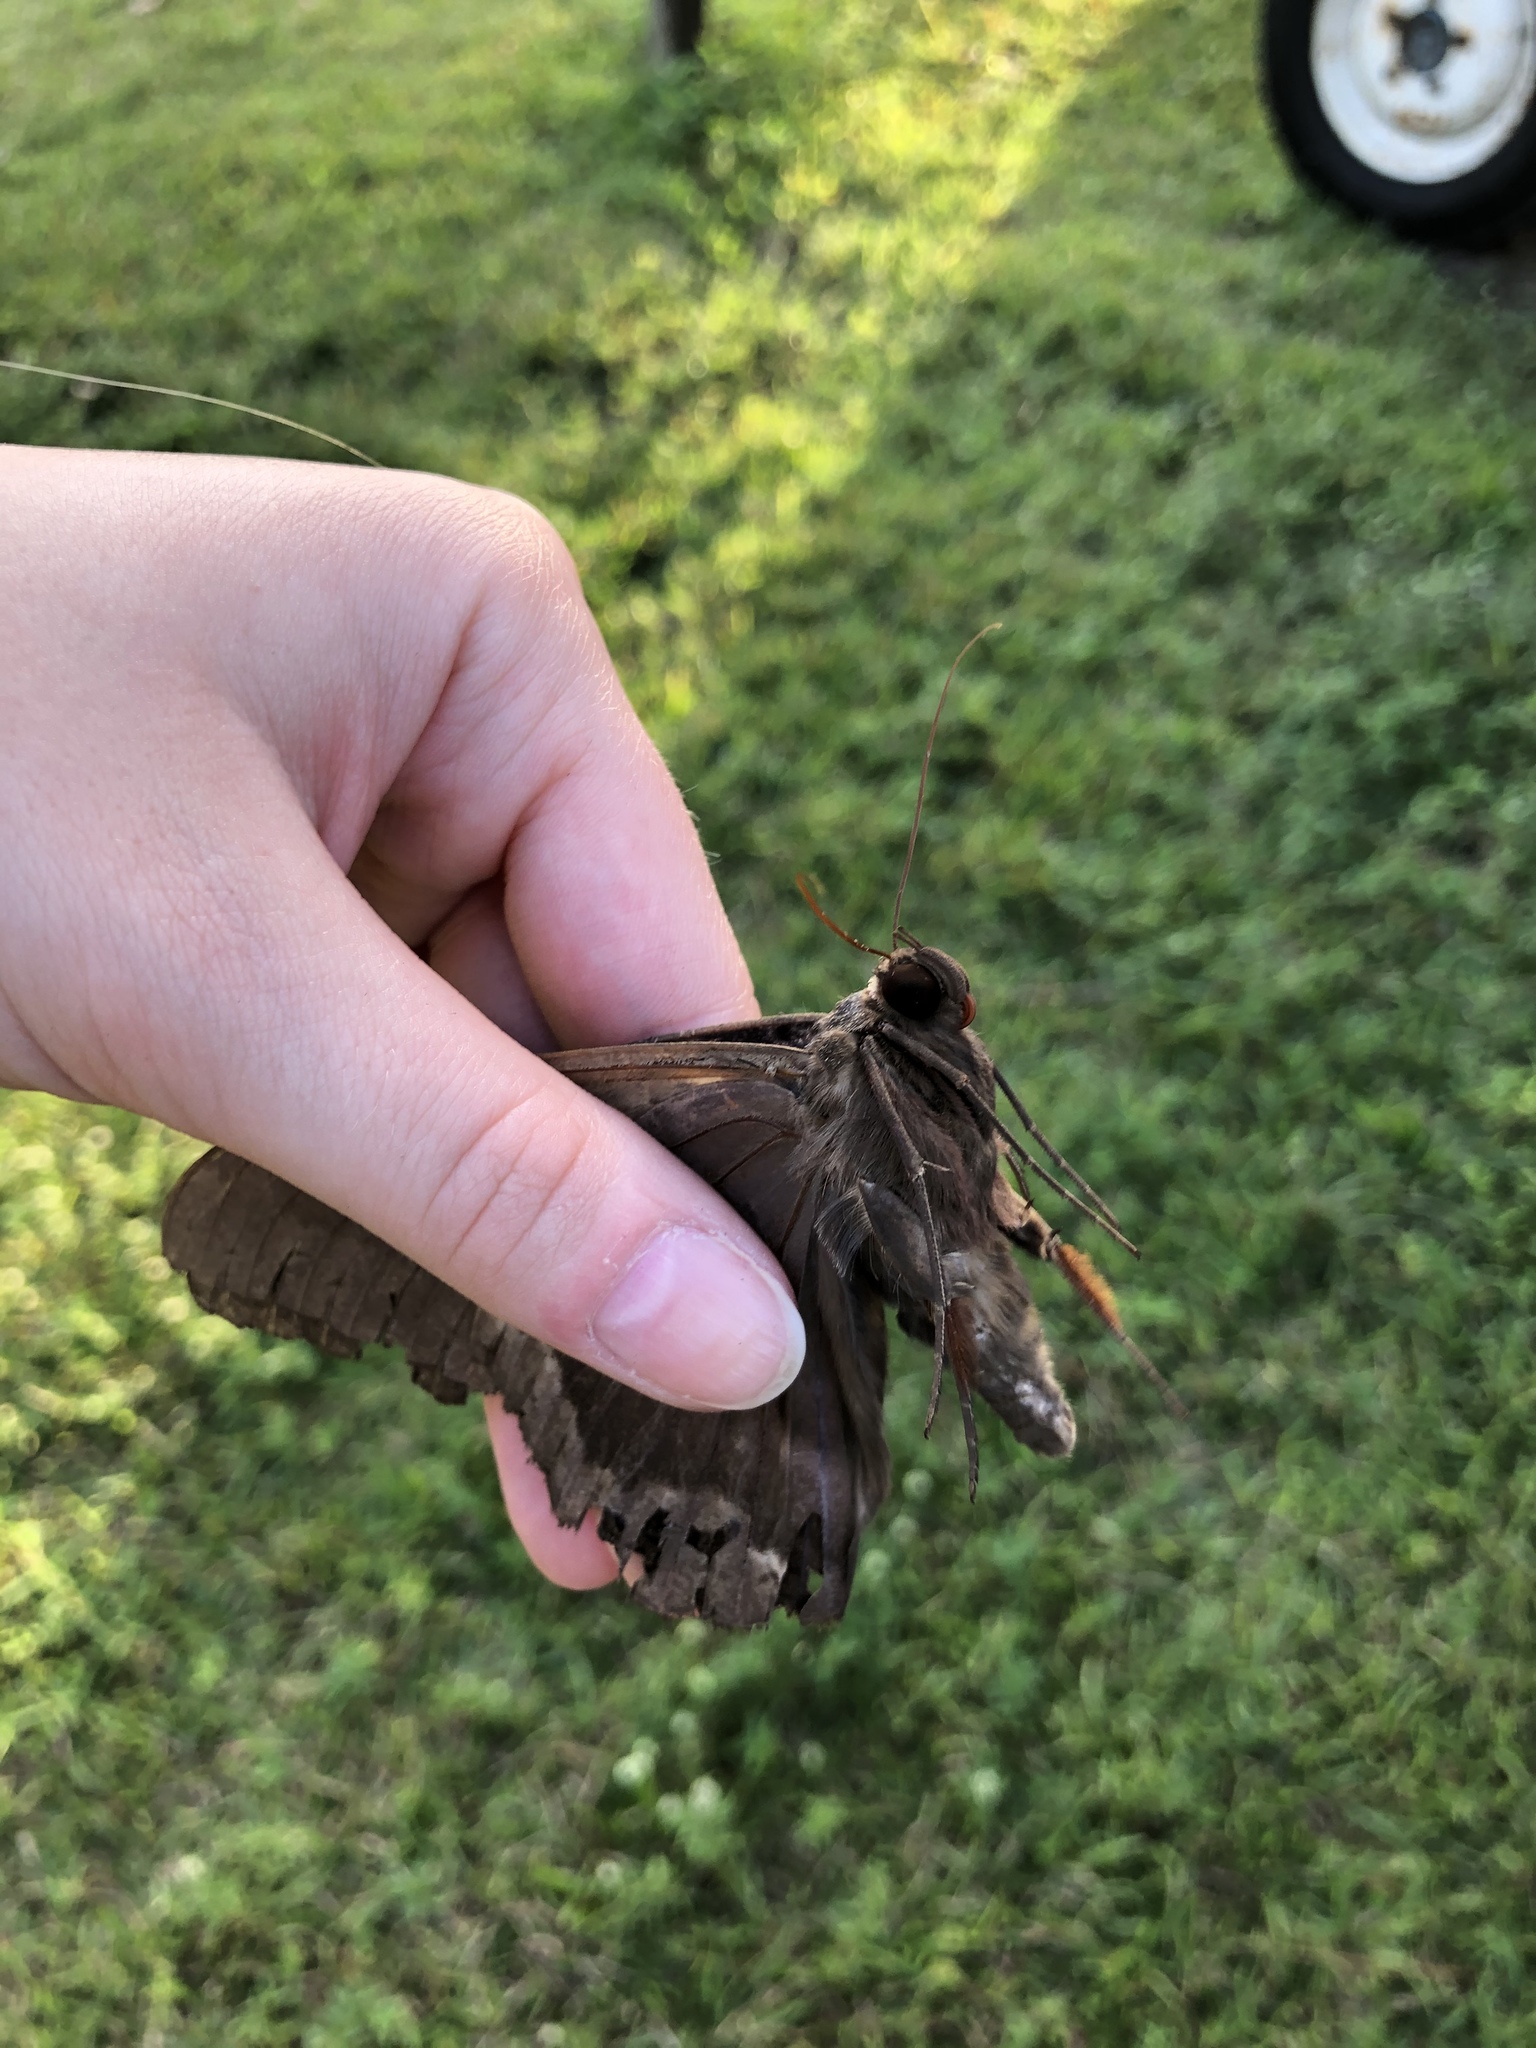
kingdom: Animalia
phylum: Arthropoda
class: Insecta
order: Lepidoptera
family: Erebidae
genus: Ascalapha
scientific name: Ascalapha odorata
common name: Black witch
